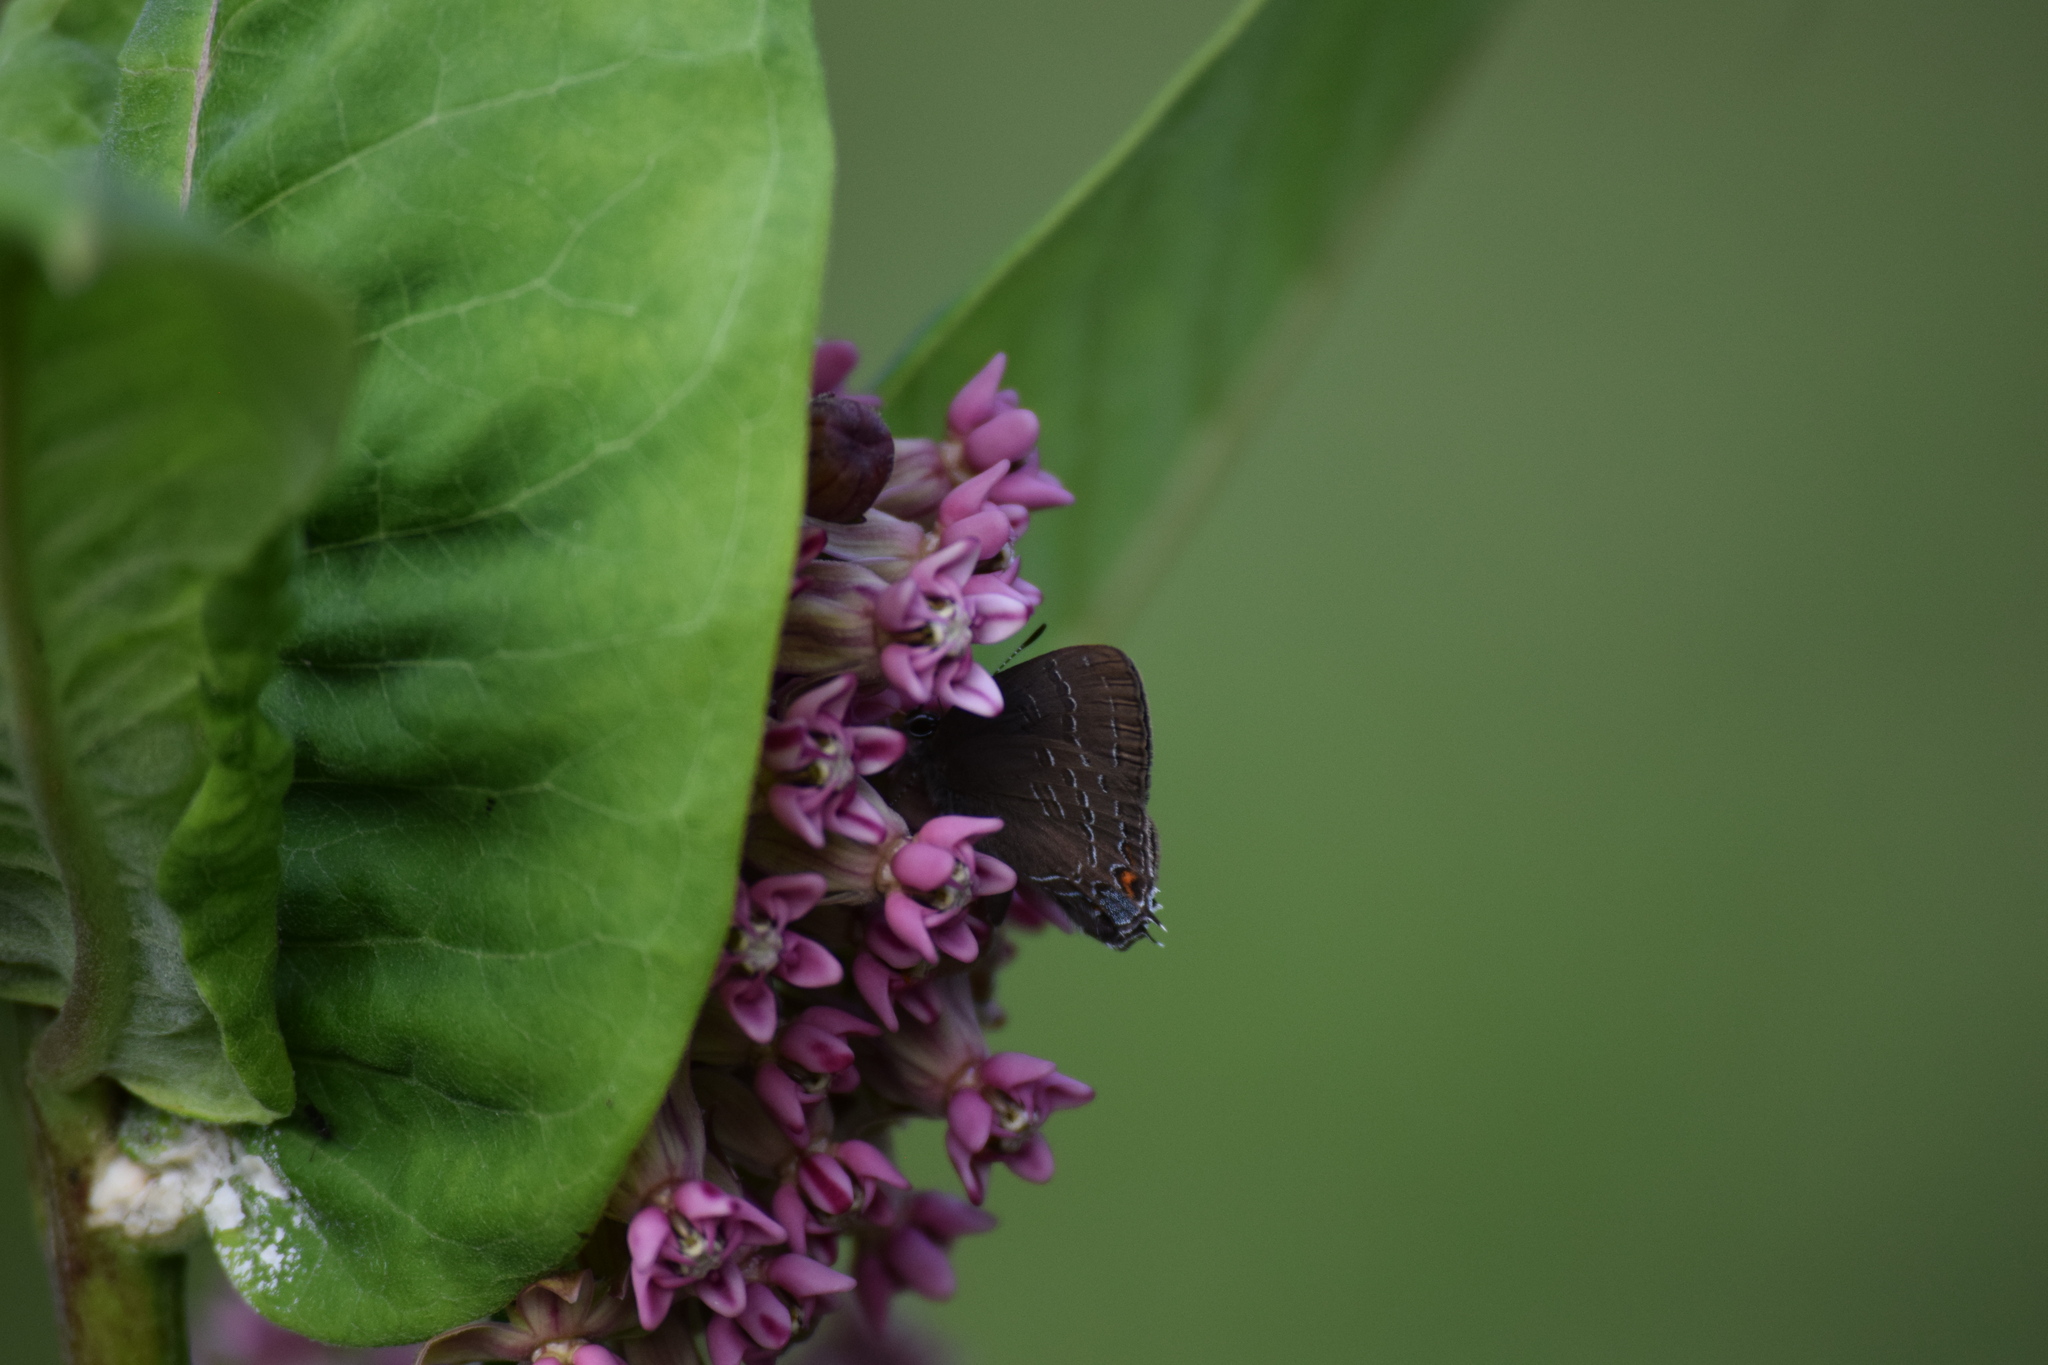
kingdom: Animalia
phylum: Arthropoda
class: Insecta
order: Lepidoptera
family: Lycaenidae
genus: Satyrium
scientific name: Satyrium calanus
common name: Banded hairstreak
